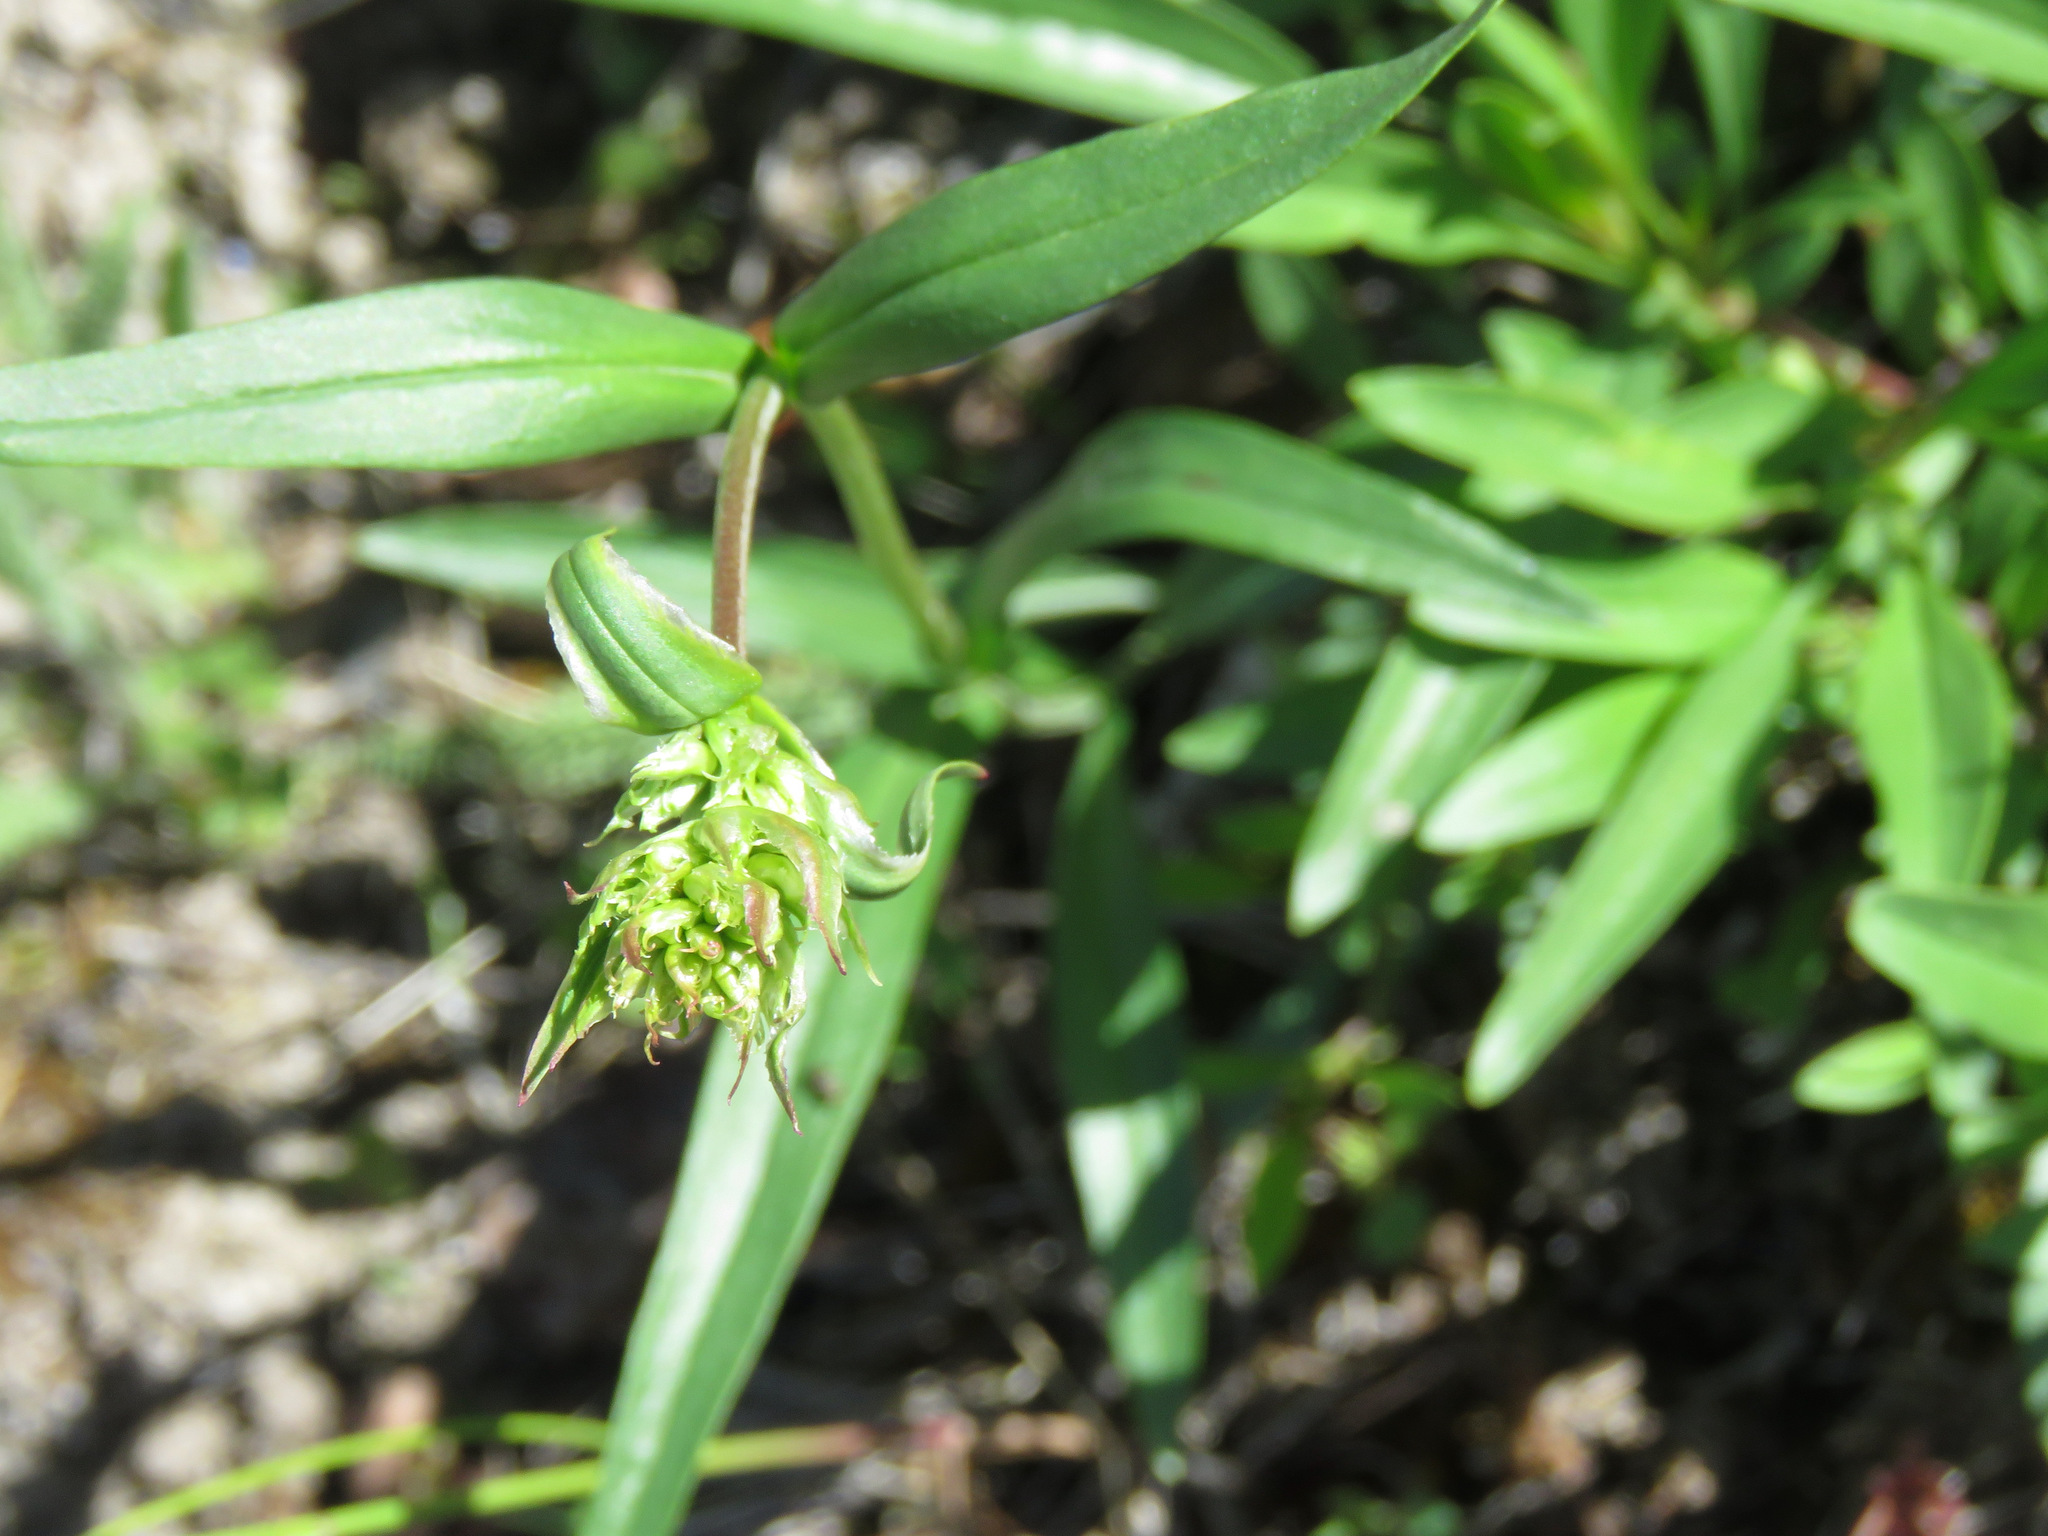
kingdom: Plantae
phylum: Tracheophyta
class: Magnoliopsida
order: Lamiales
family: Plantaginaceae
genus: Penstemon
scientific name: Penstemon confertus
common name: Lesser yellow beardtongue
